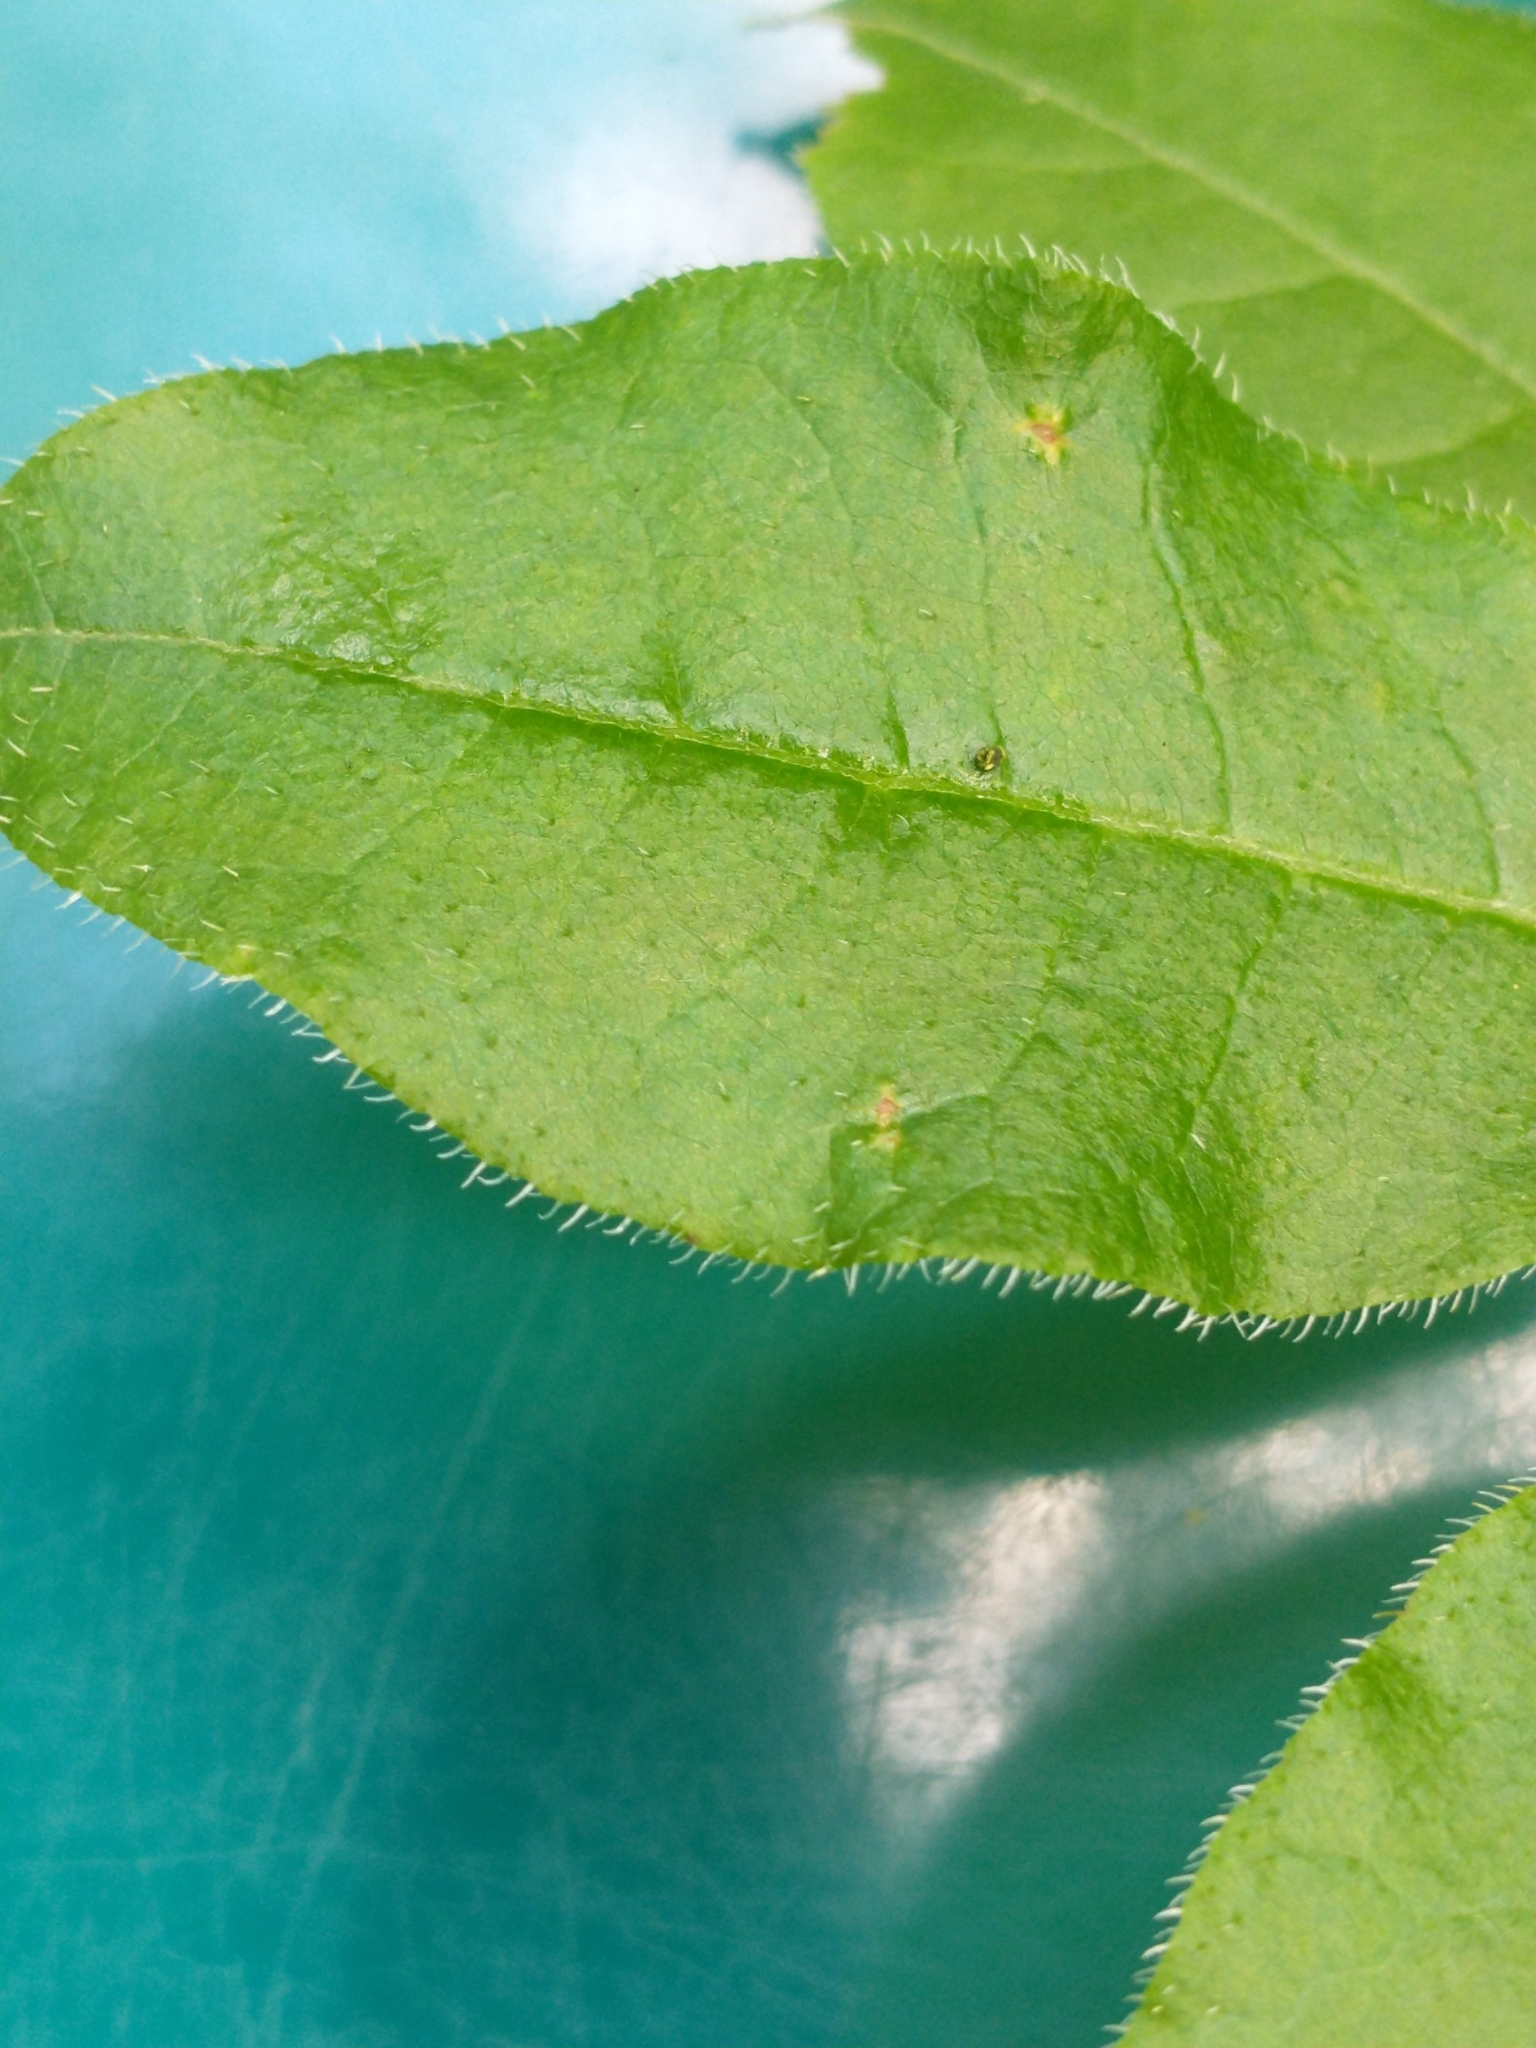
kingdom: Plantae
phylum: Tracheophyta
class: Magnoliopsida
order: Ericales
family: Ericaceae
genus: Rhododendron
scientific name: Rhododendron roseum
